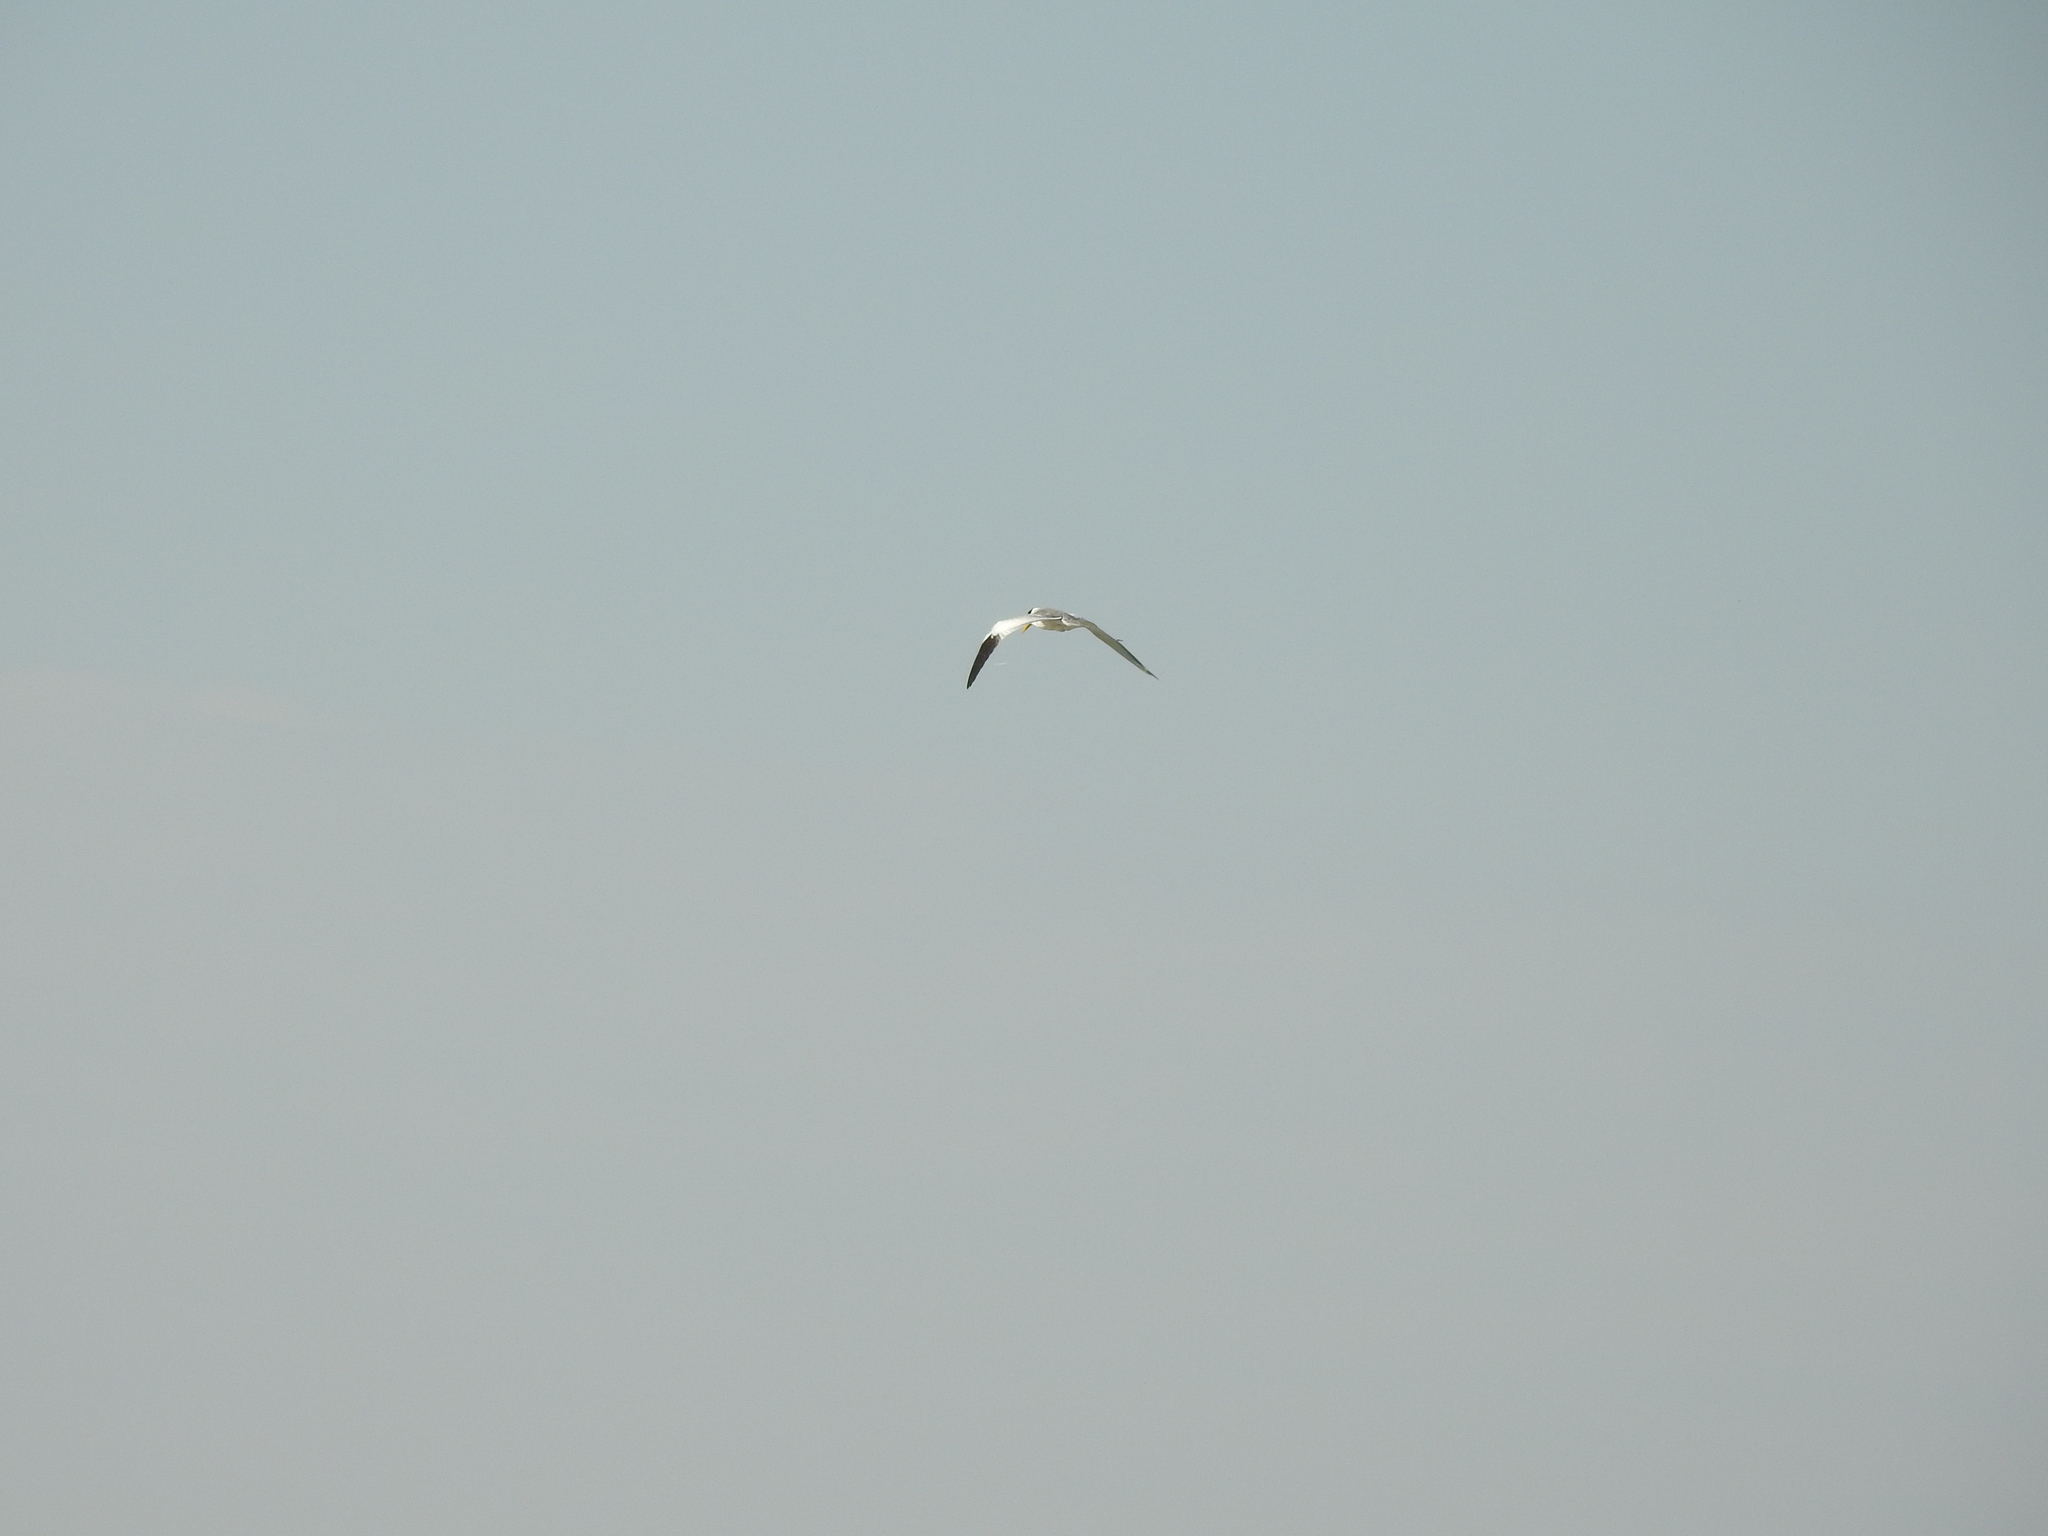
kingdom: Animalia
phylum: Chordata
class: Aves
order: Charadriiformes
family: Laridae
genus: Phaetusa
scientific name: Phaetusa simplex
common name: Large-billed tern
